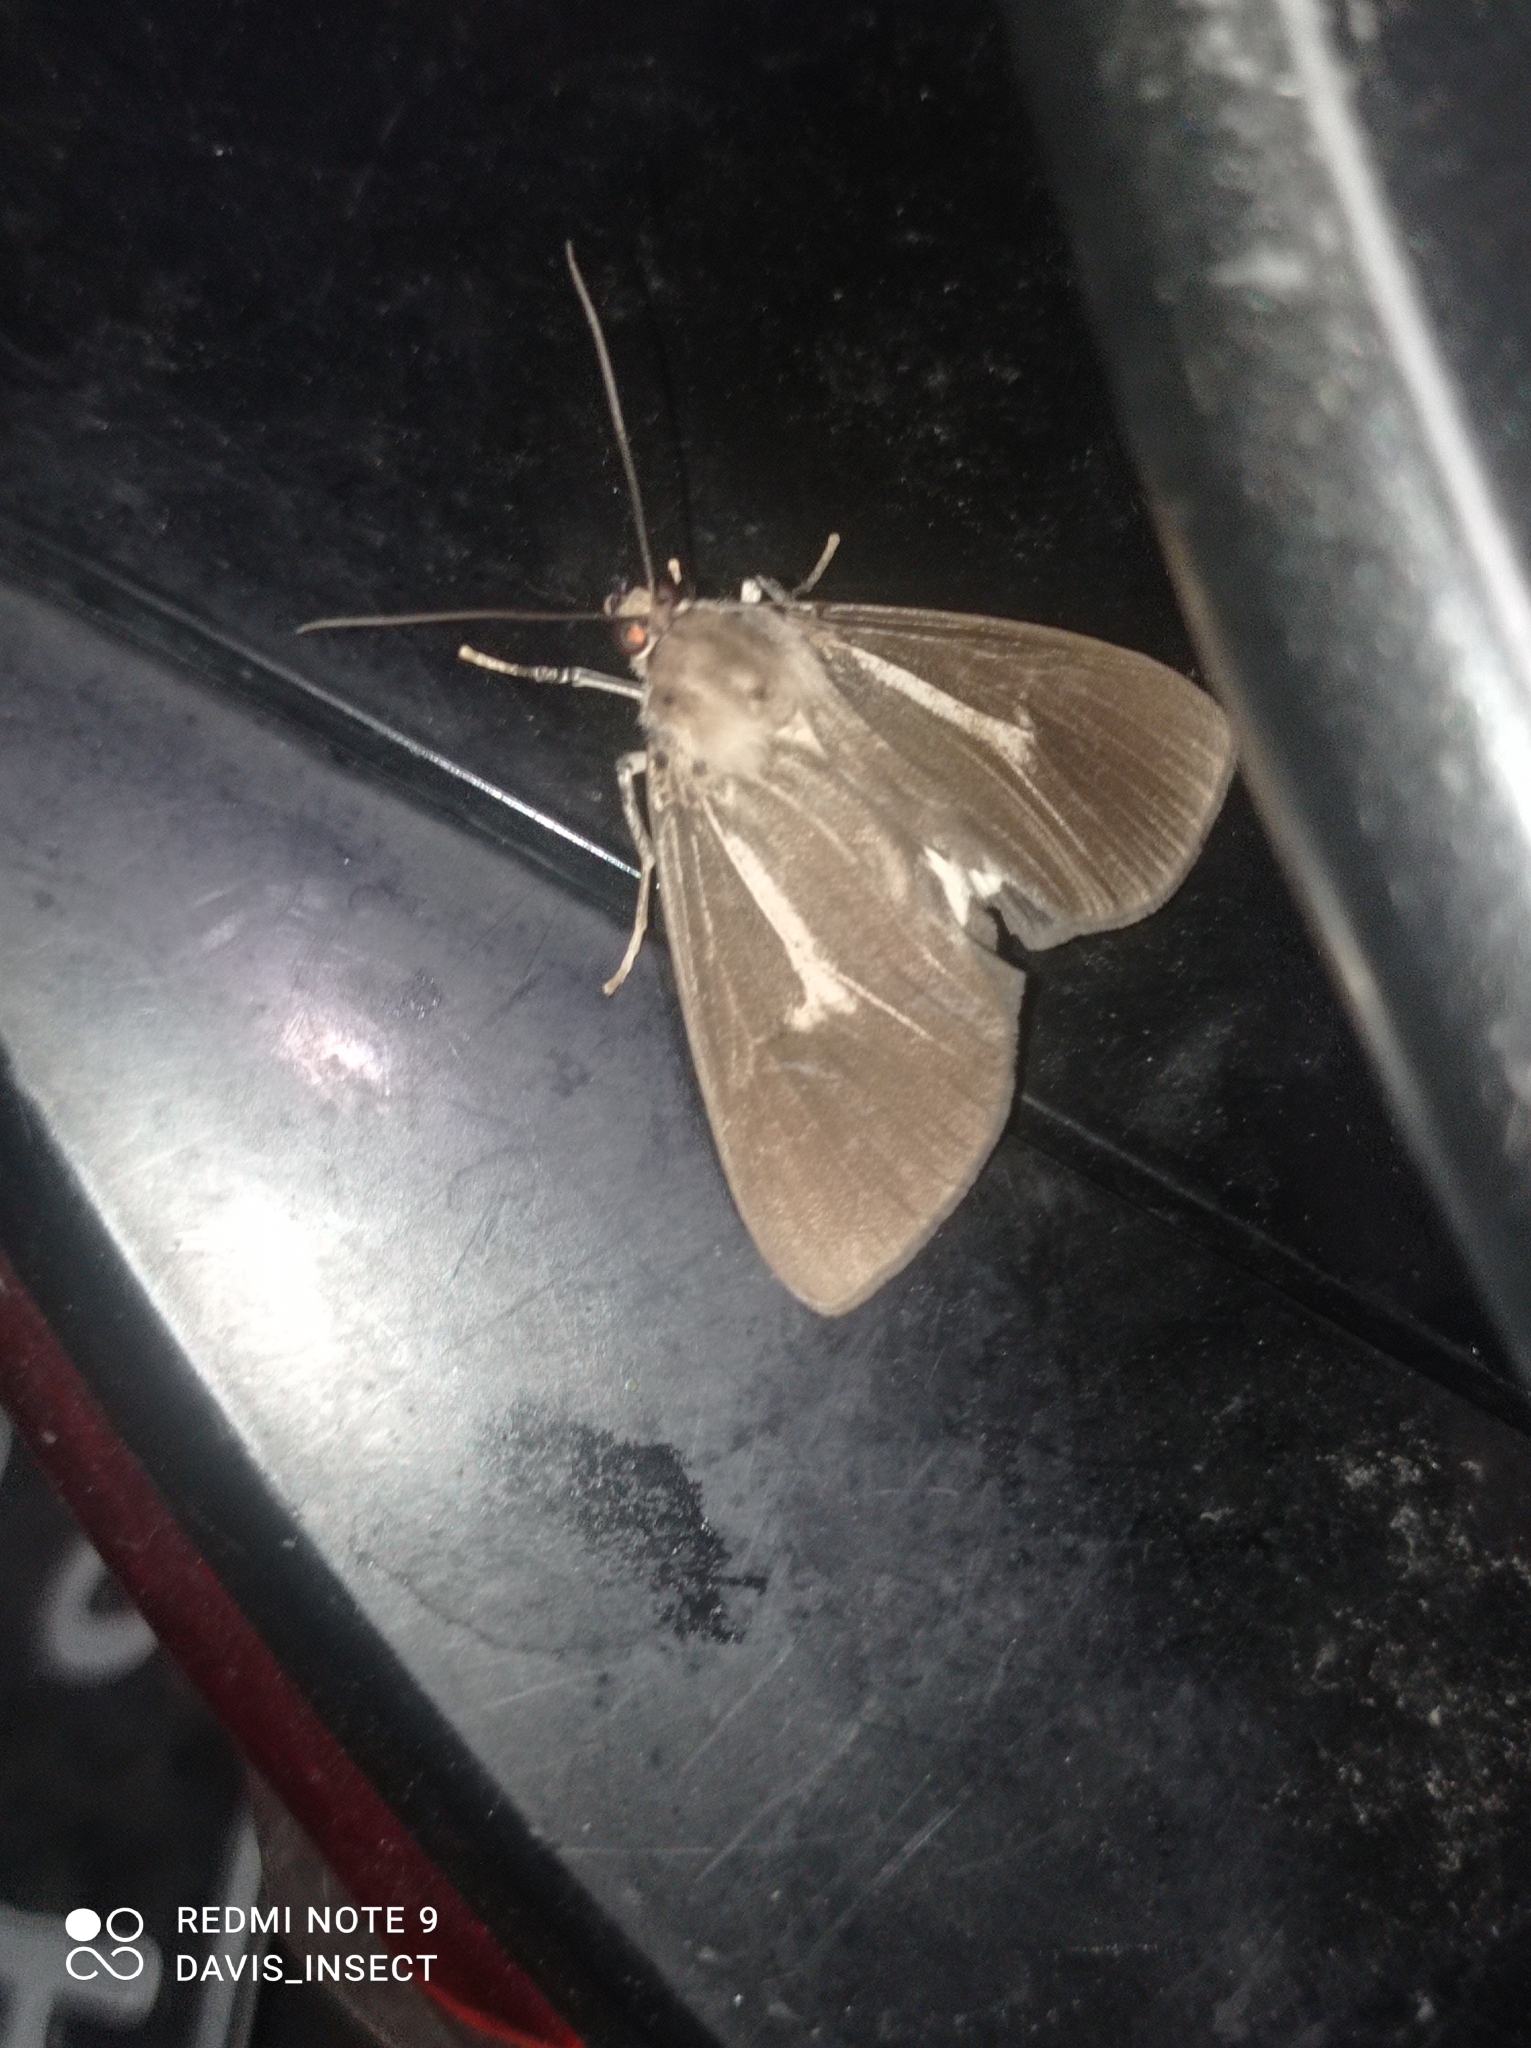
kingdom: Animalia
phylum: Arthropoda
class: Insecta
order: Lepidoptera
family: Erebidae
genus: Asota
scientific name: Asota heliconia
